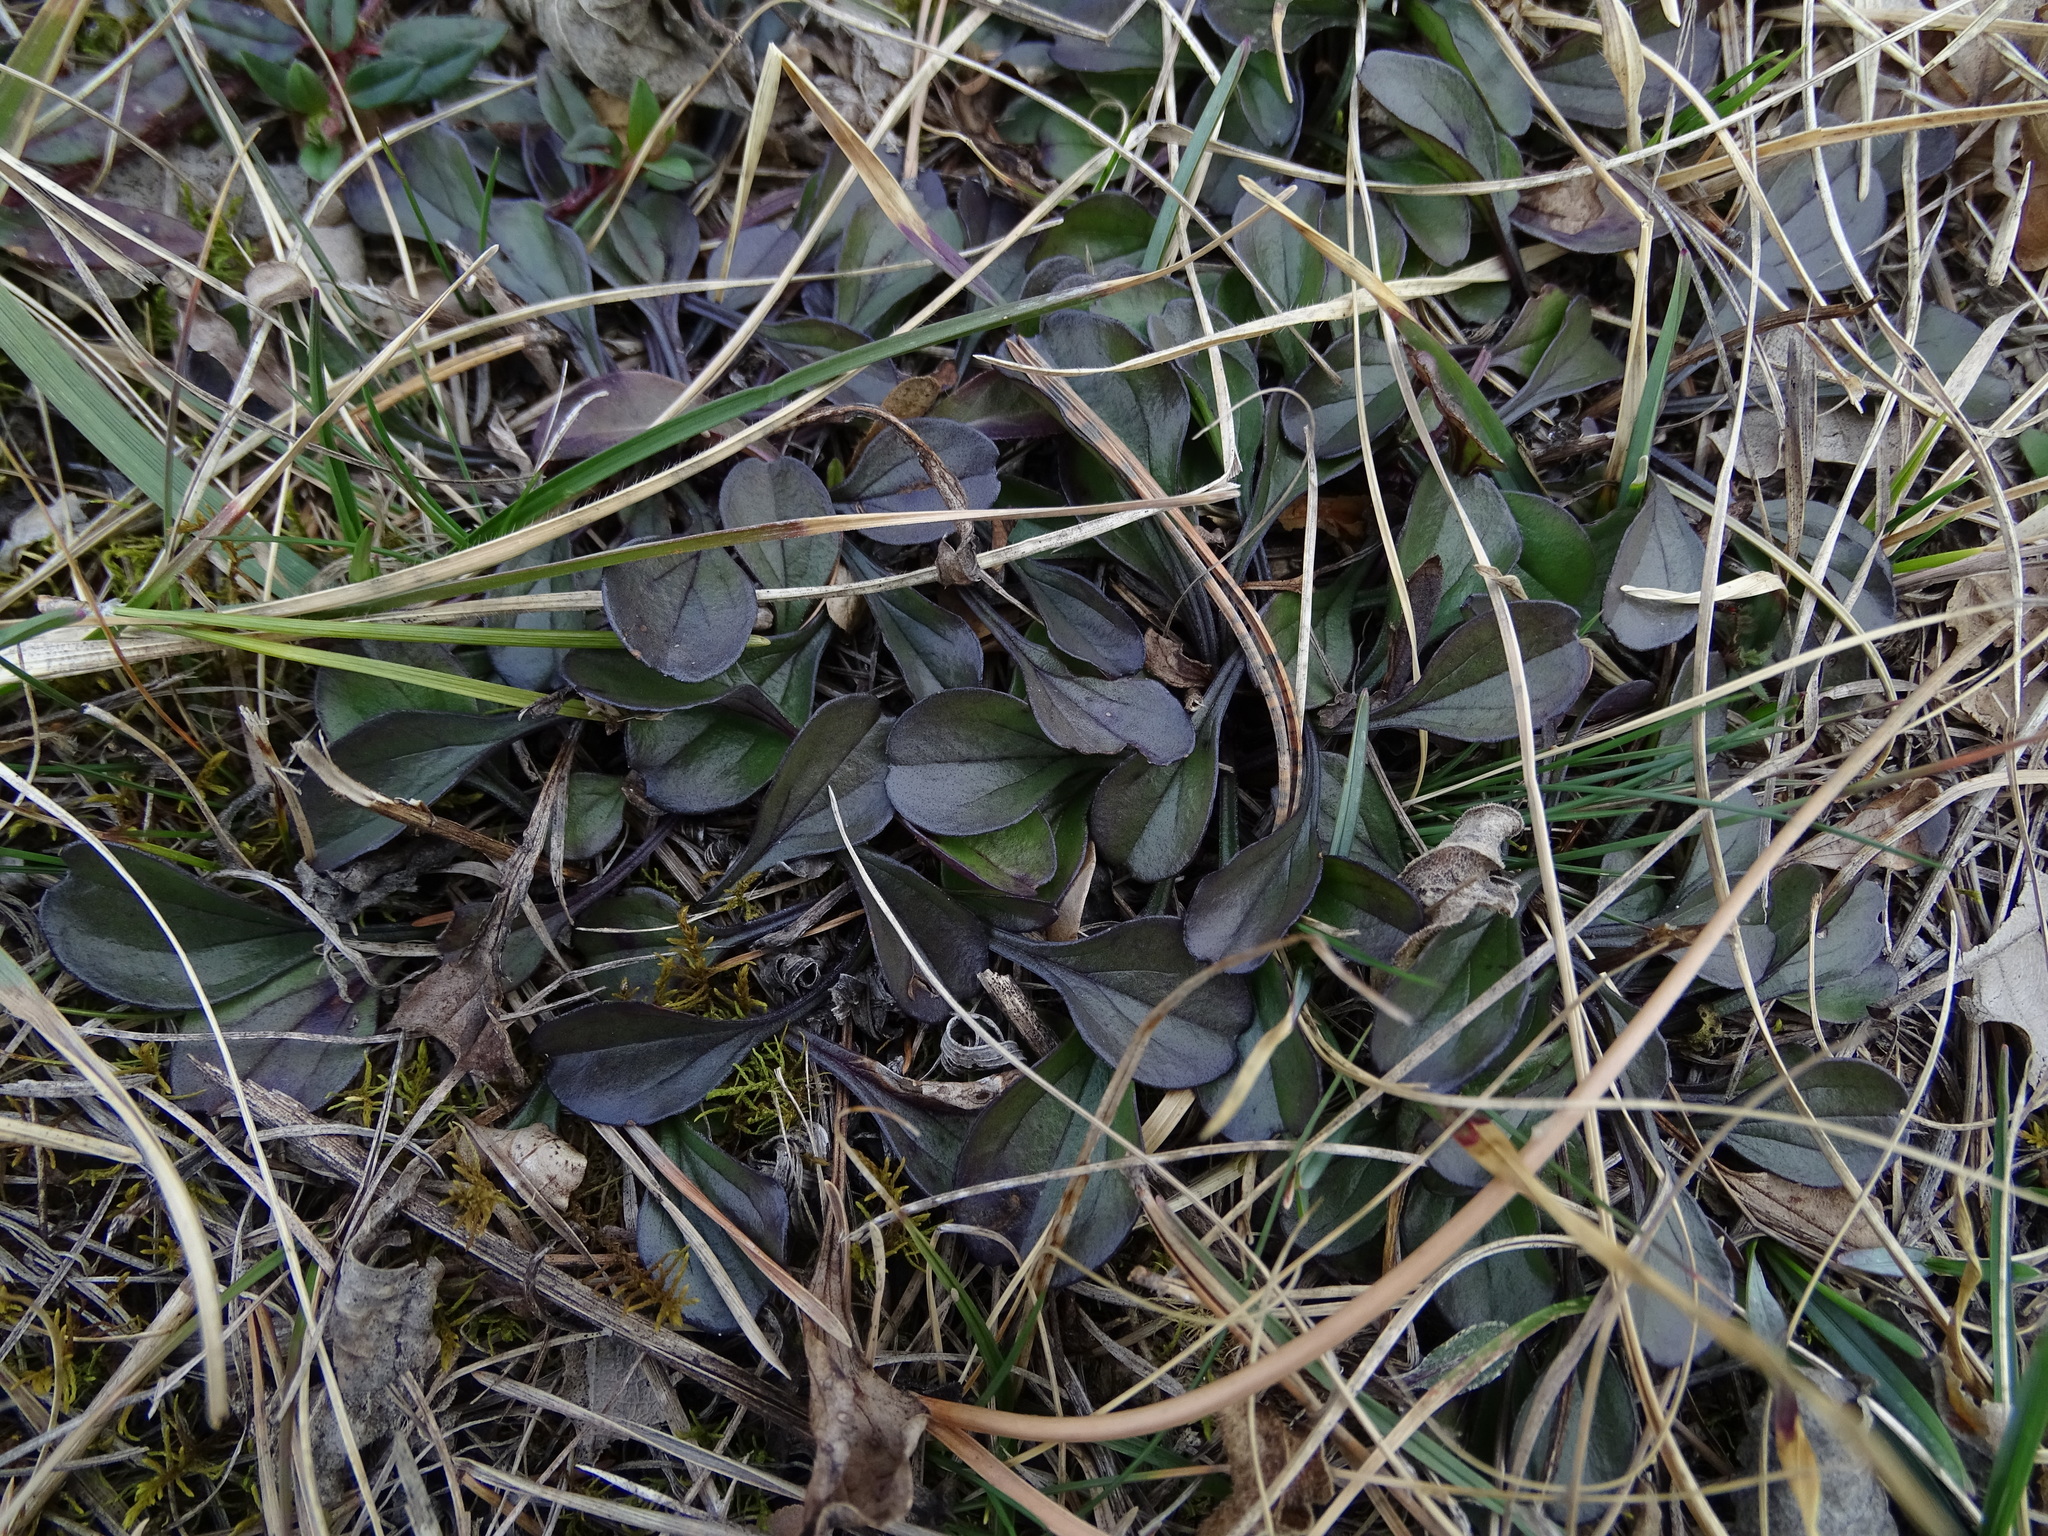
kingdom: Plantae
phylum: Tracheophyta
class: Magnoliopsida
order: Lamiales
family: Plantaginaceae
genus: Globularia
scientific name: Globularia bisnagarica
